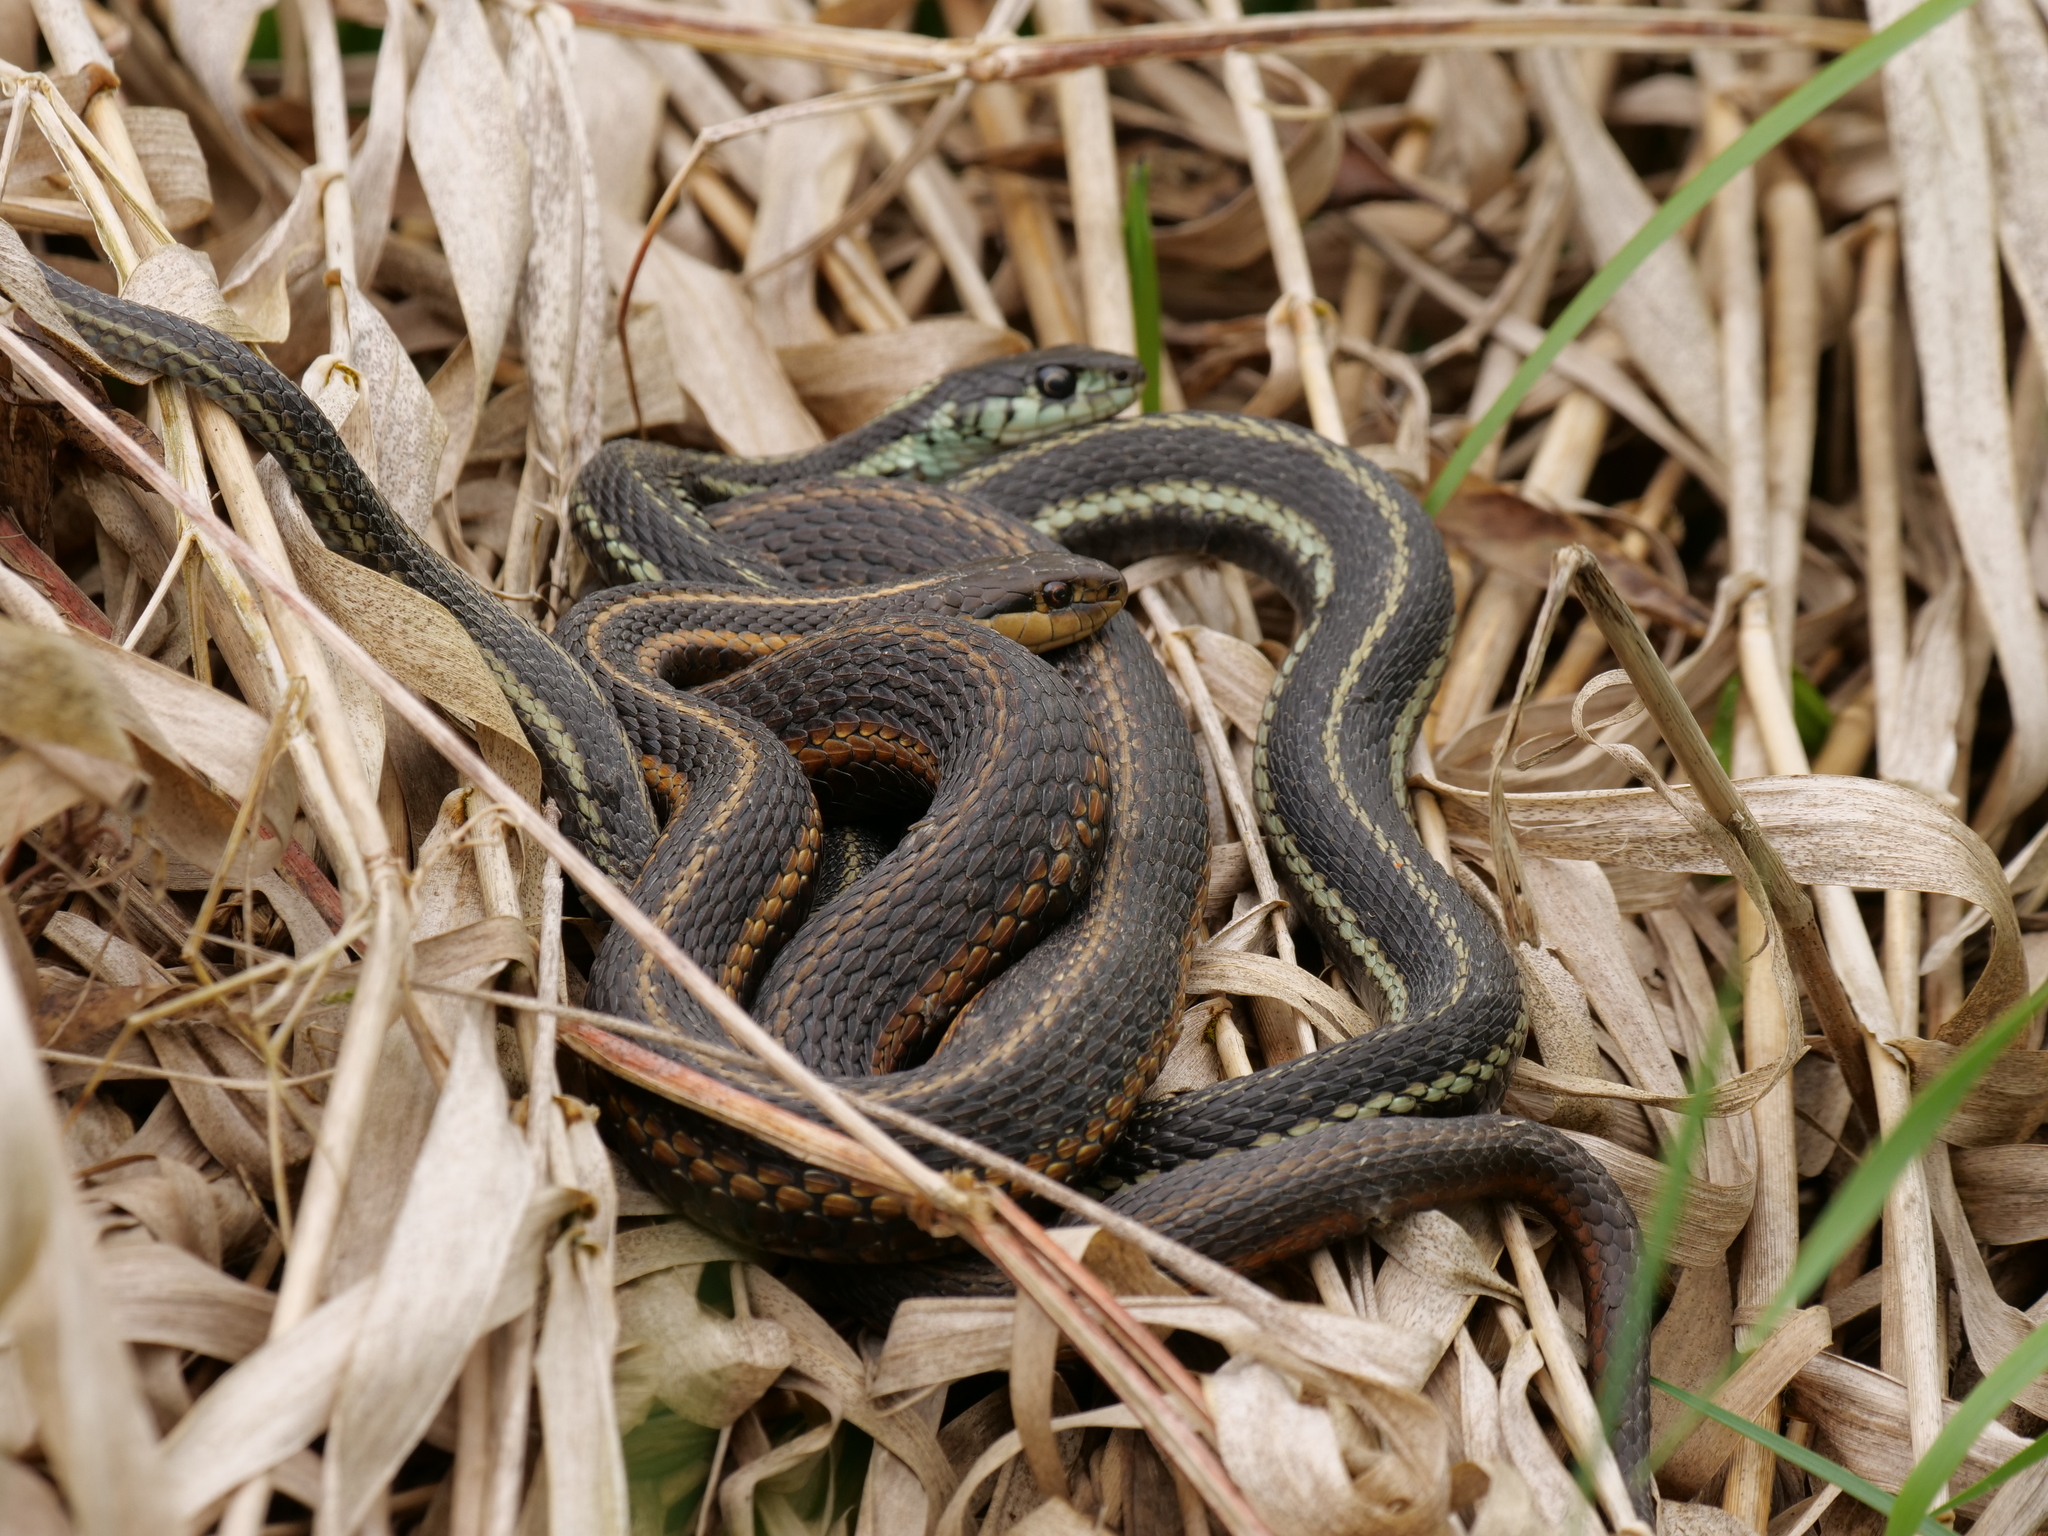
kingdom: Animalia
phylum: Chordata
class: Squamata
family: Colubridae
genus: Thamnophis
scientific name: Thamnophis ordinoides
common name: Northwestern garter snake
